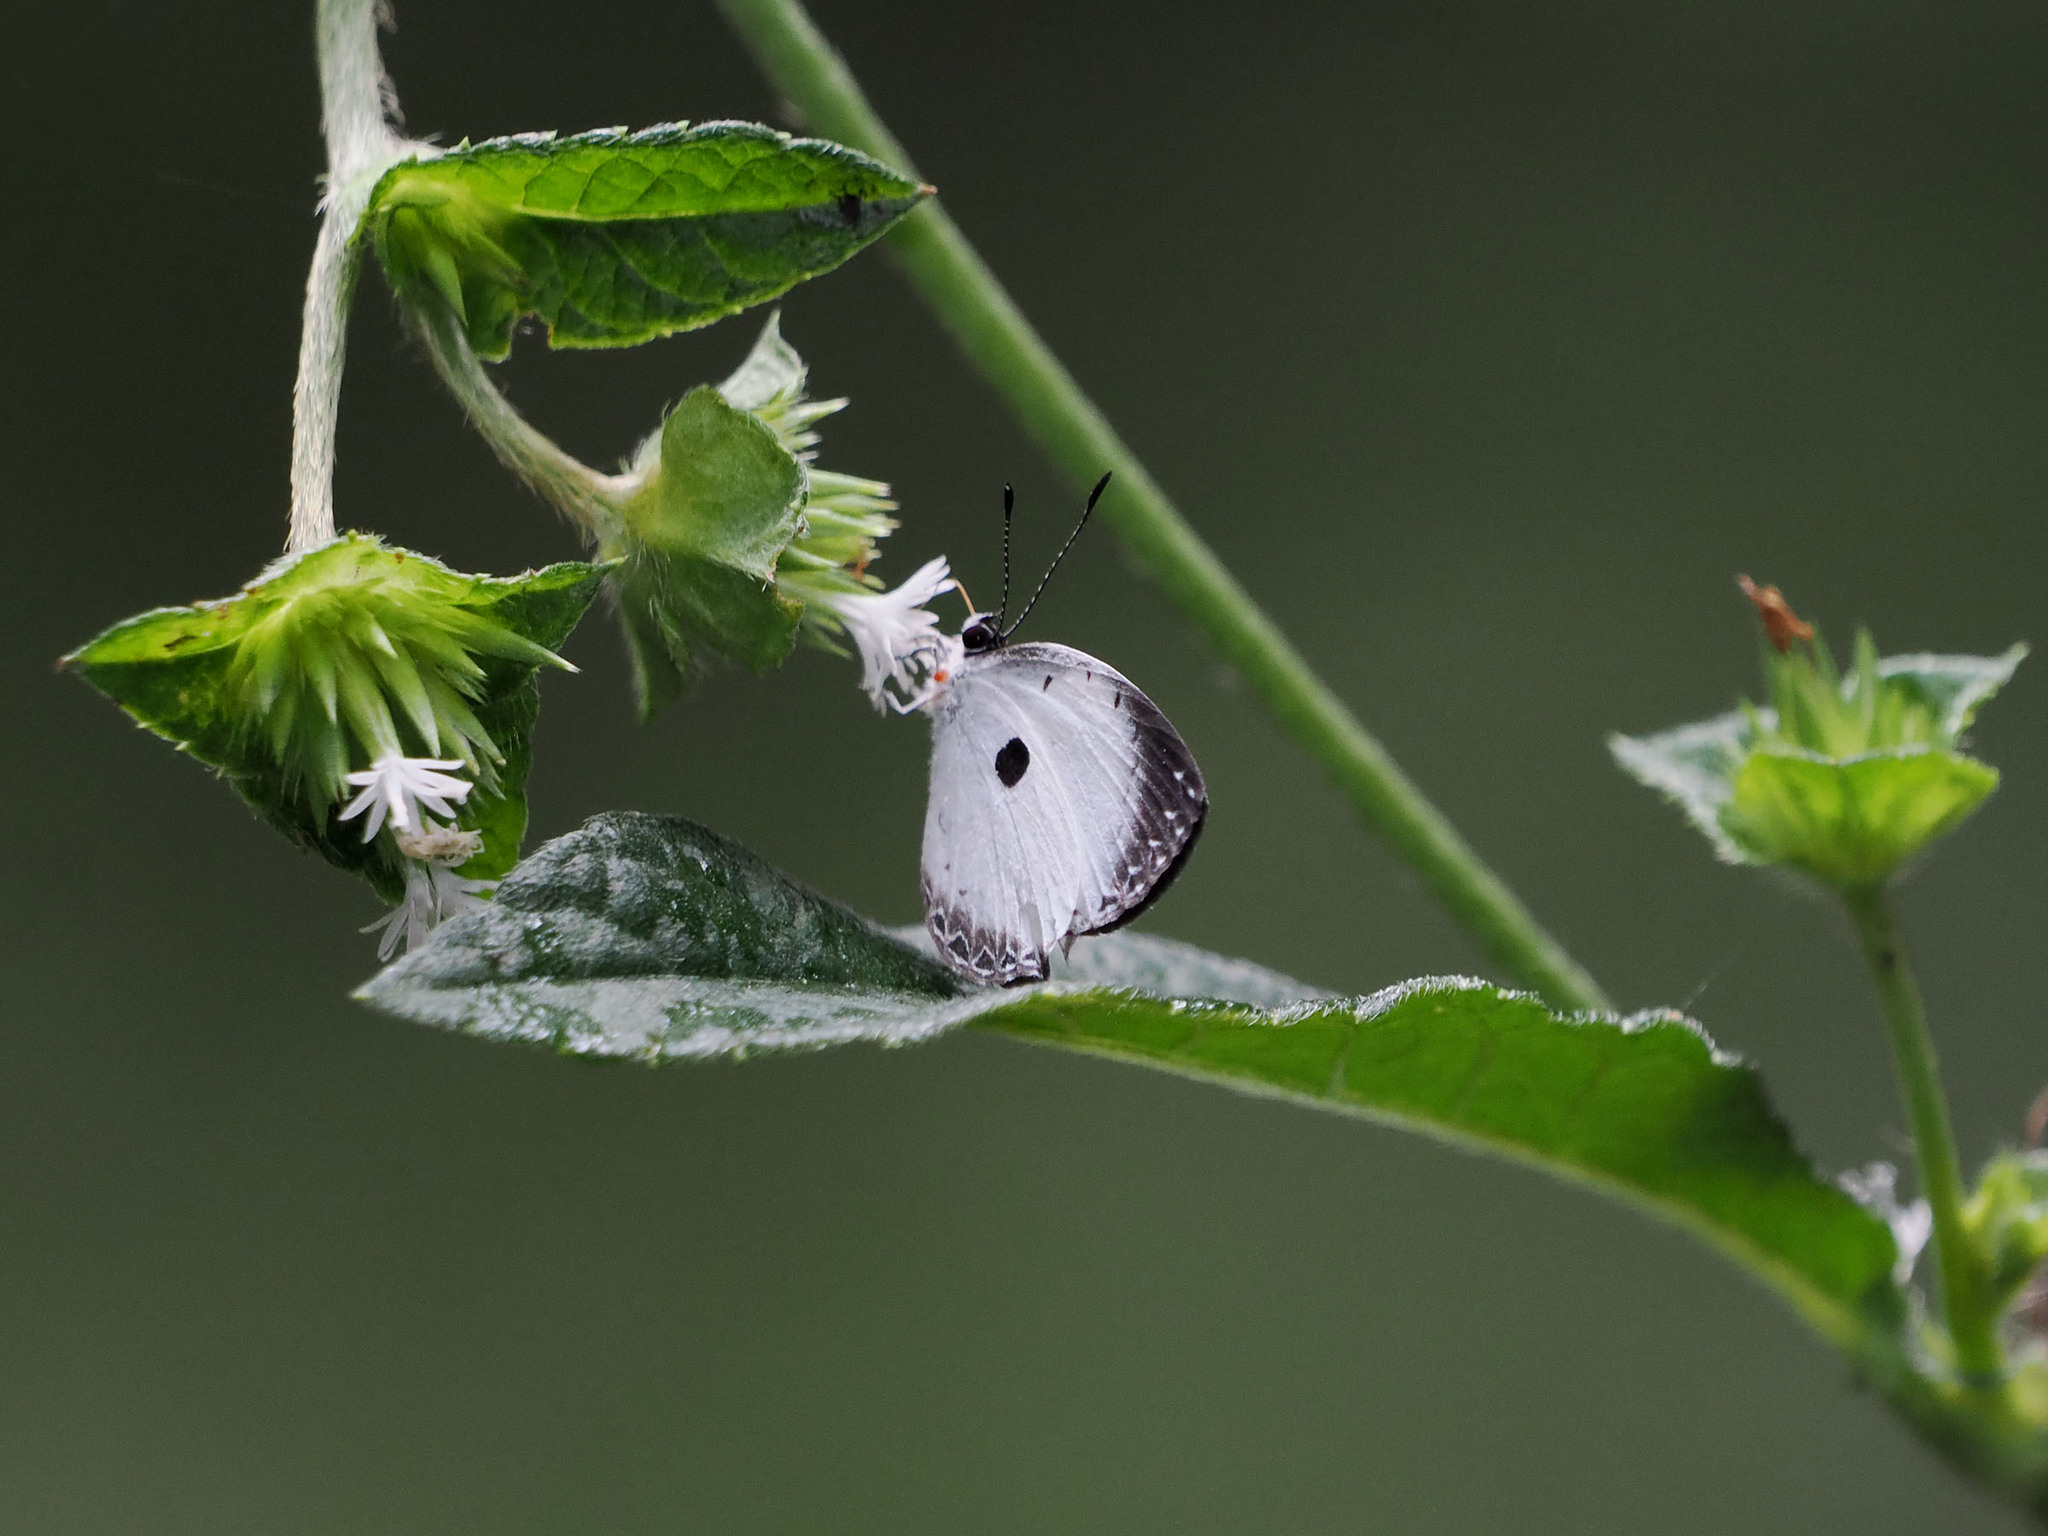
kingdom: Animalia
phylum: Arthropoda
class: Insecta
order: Lepidoptera
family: Lycaenidae
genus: Pithecops
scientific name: Pithecops dionisius
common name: Pied blue
